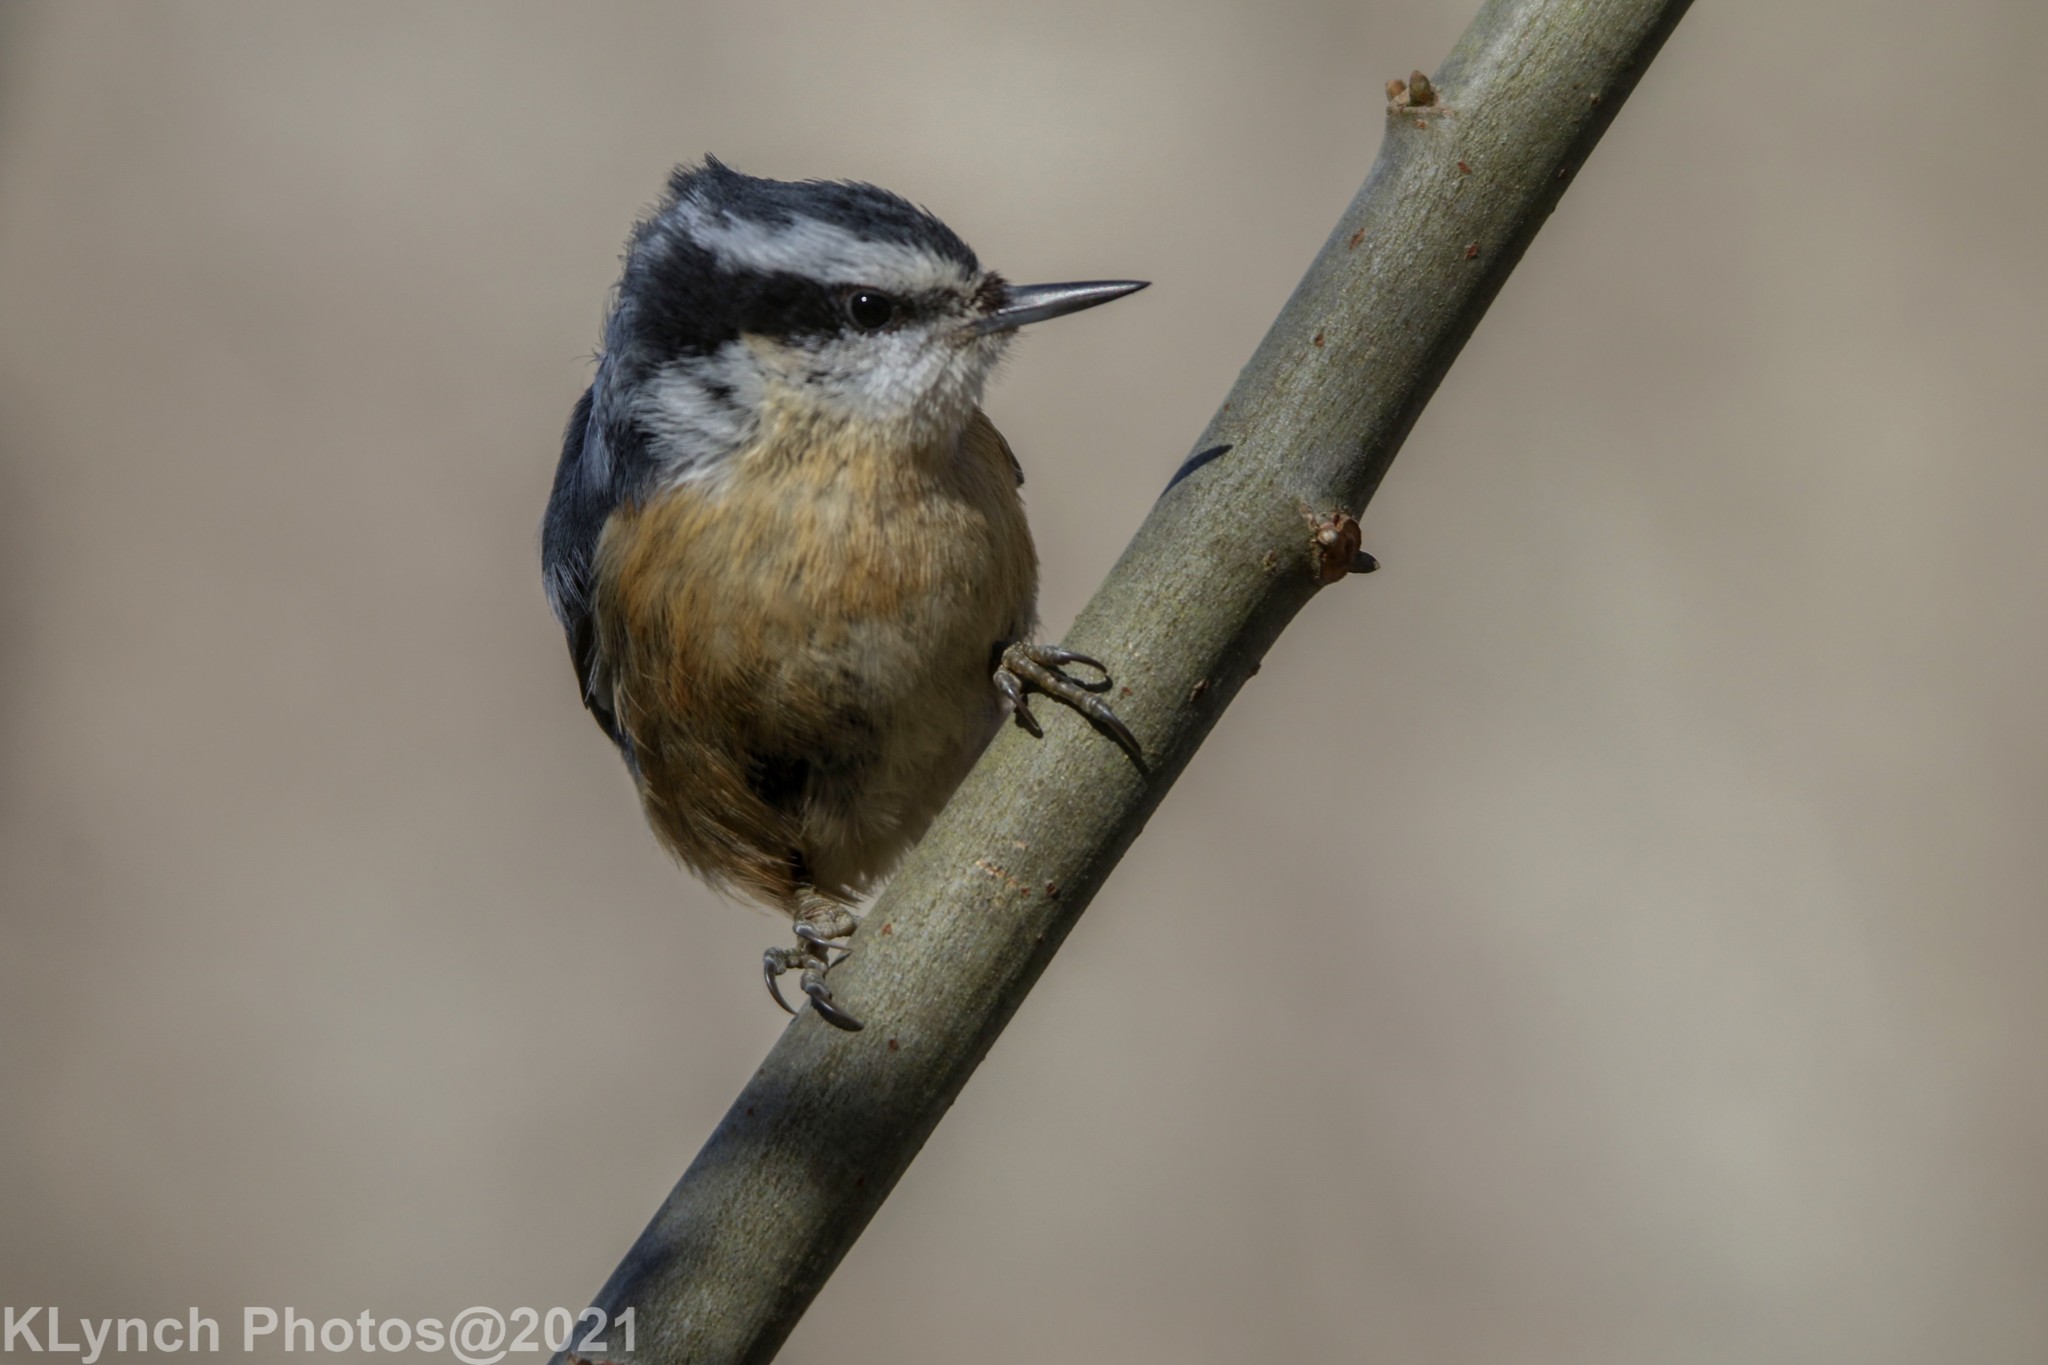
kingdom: Animalia
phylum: Chordata
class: Aves
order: Passeriformes
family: Sittidae
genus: Sitta
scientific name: Sitta canadensis
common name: Red-breasted nuthatch
